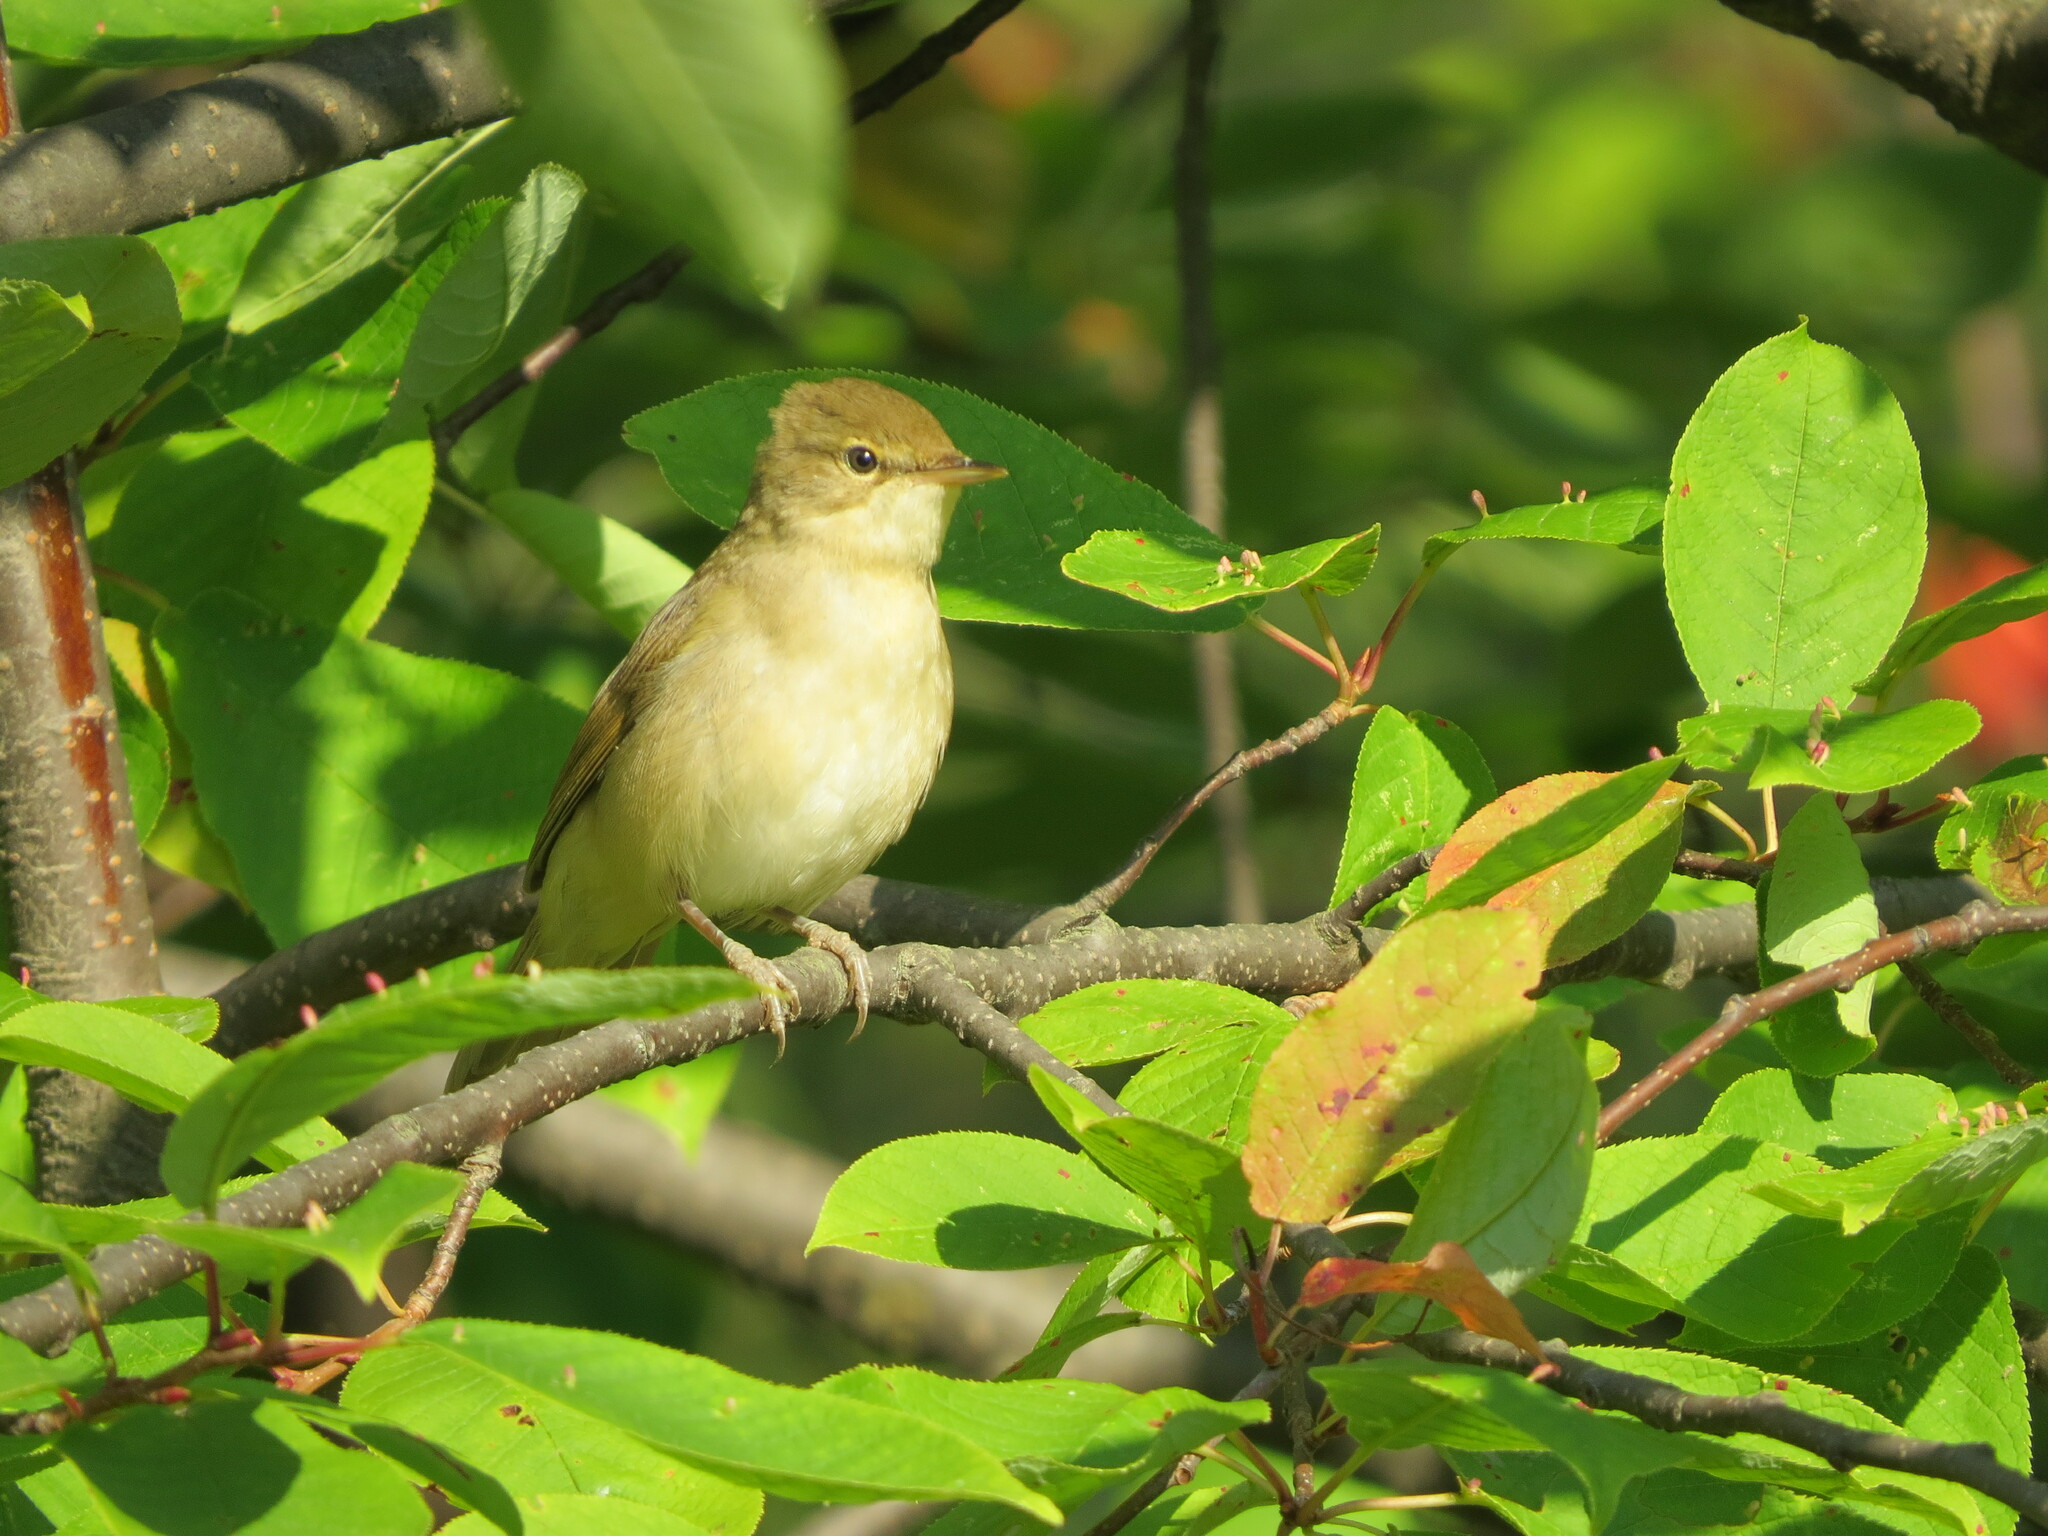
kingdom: Animalia
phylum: Chordata
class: Aves
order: Passeriformes
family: Acrocephalidae
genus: Acrocephalus
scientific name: Acrocephalus dumetorum
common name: Blyth's reed warbler
